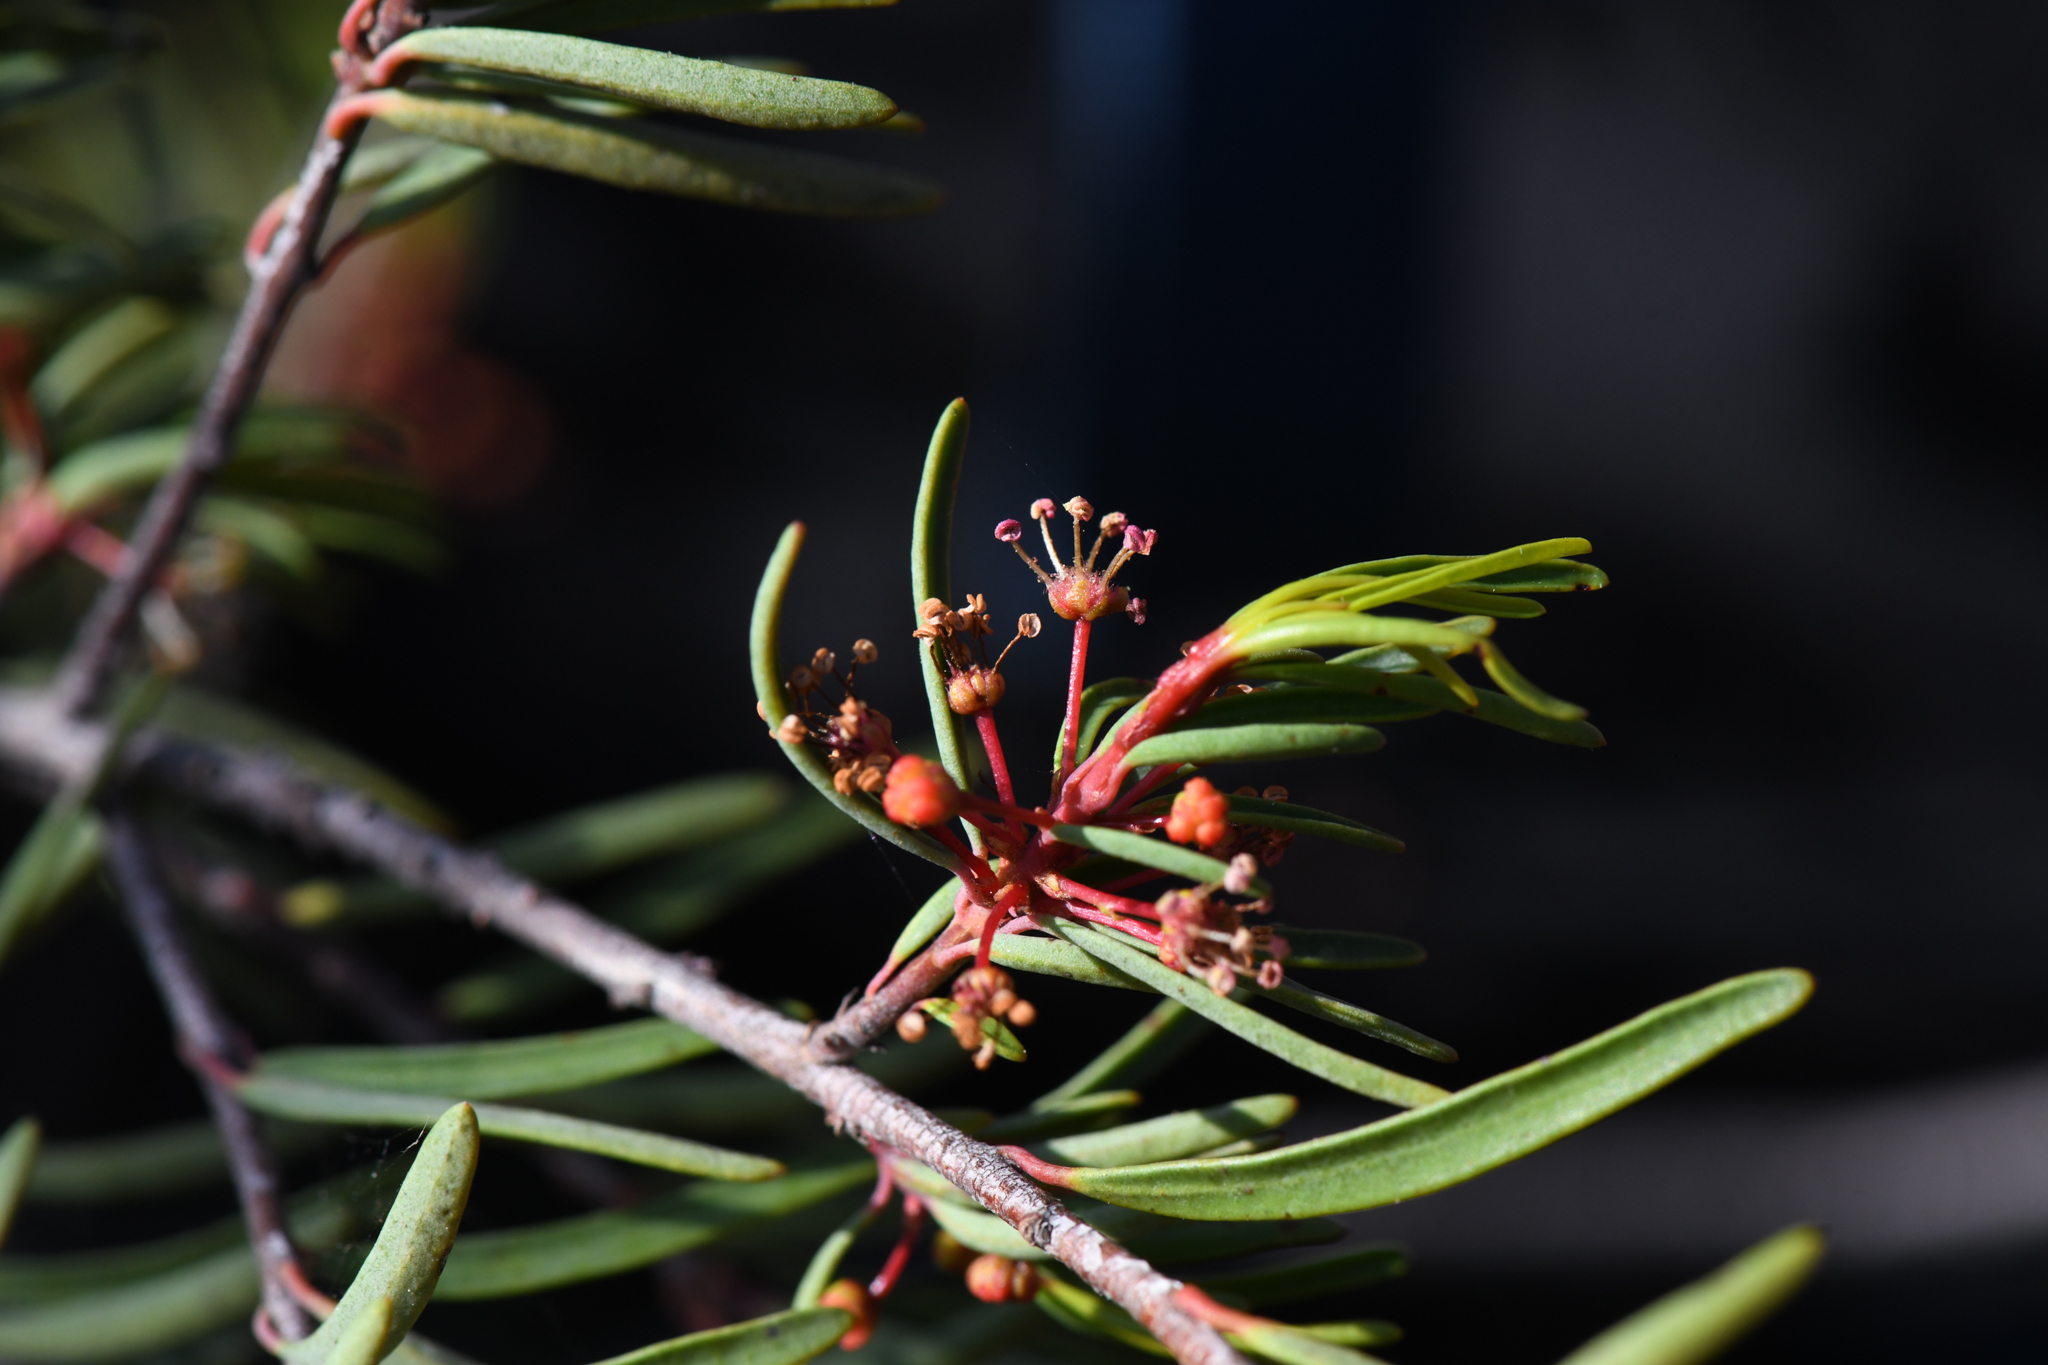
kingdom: Plantae
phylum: Tracheophyta
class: Magnoliopsida
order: Malpighiales
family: Picrodendraceae
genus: Tetracoccus
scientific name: Tetracoccus dioicus
